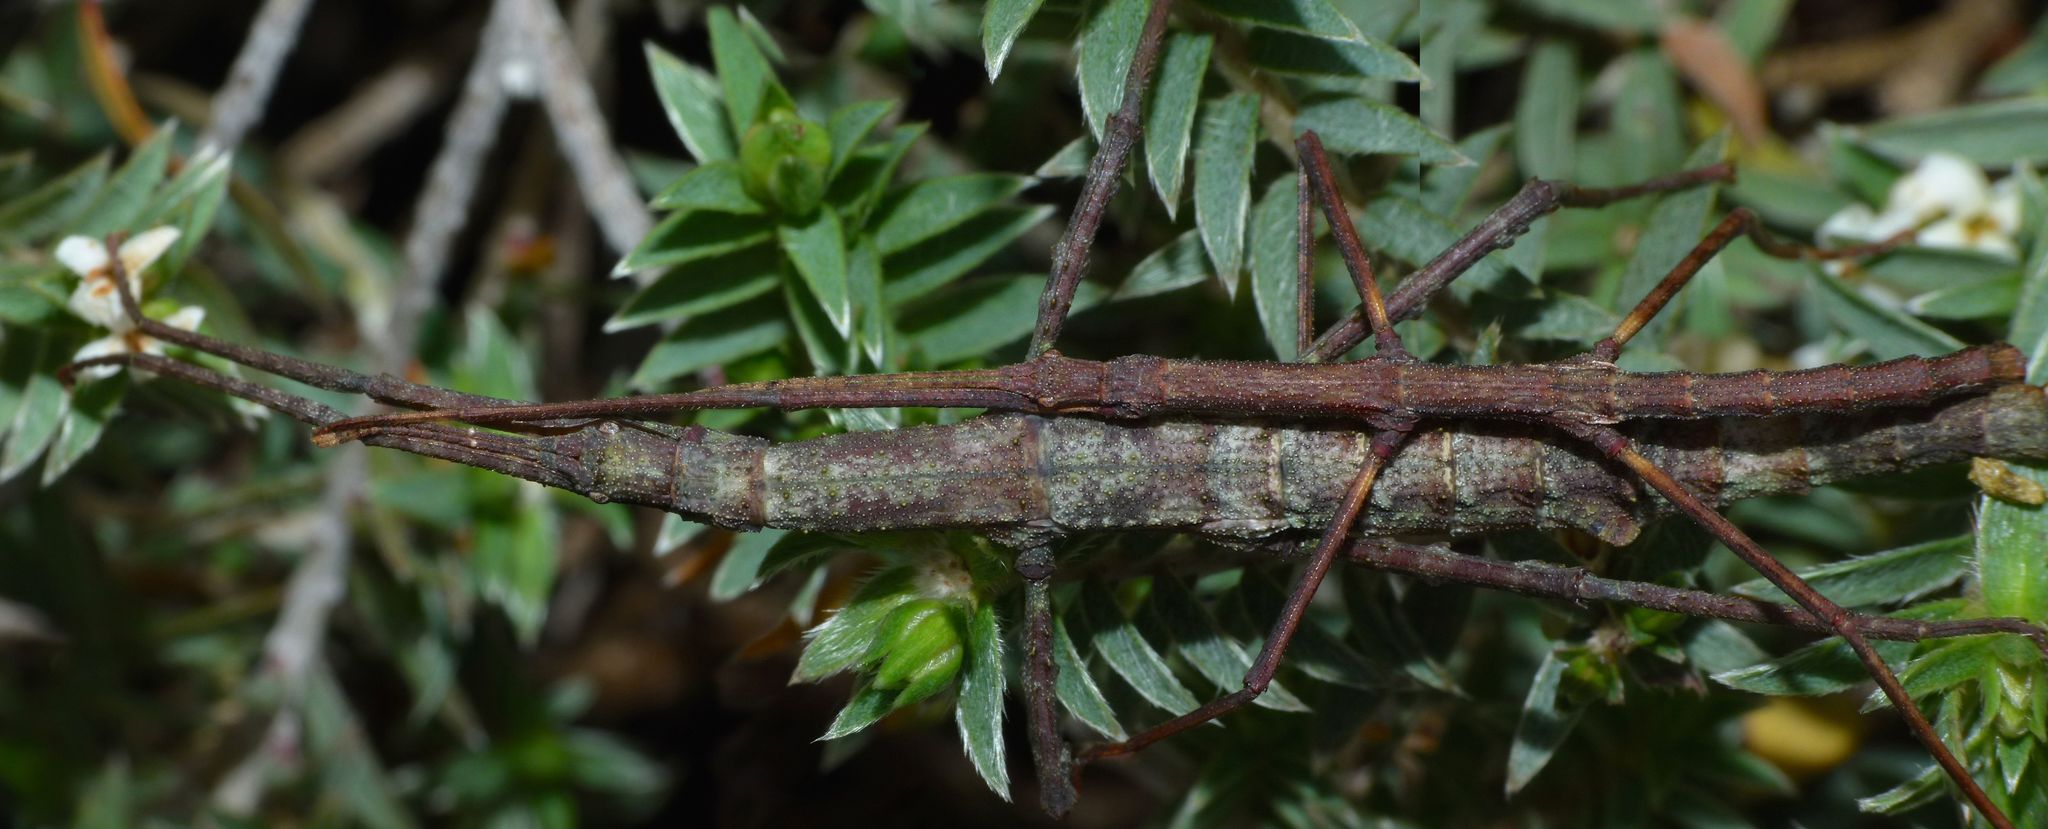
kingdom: Animalia
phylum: Arthropoda
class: Insecta
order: Phasmida
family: Phasmatidae
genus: Niveaphasma
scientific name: Niveaphasma annulatum
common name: Hutton's stick insect
